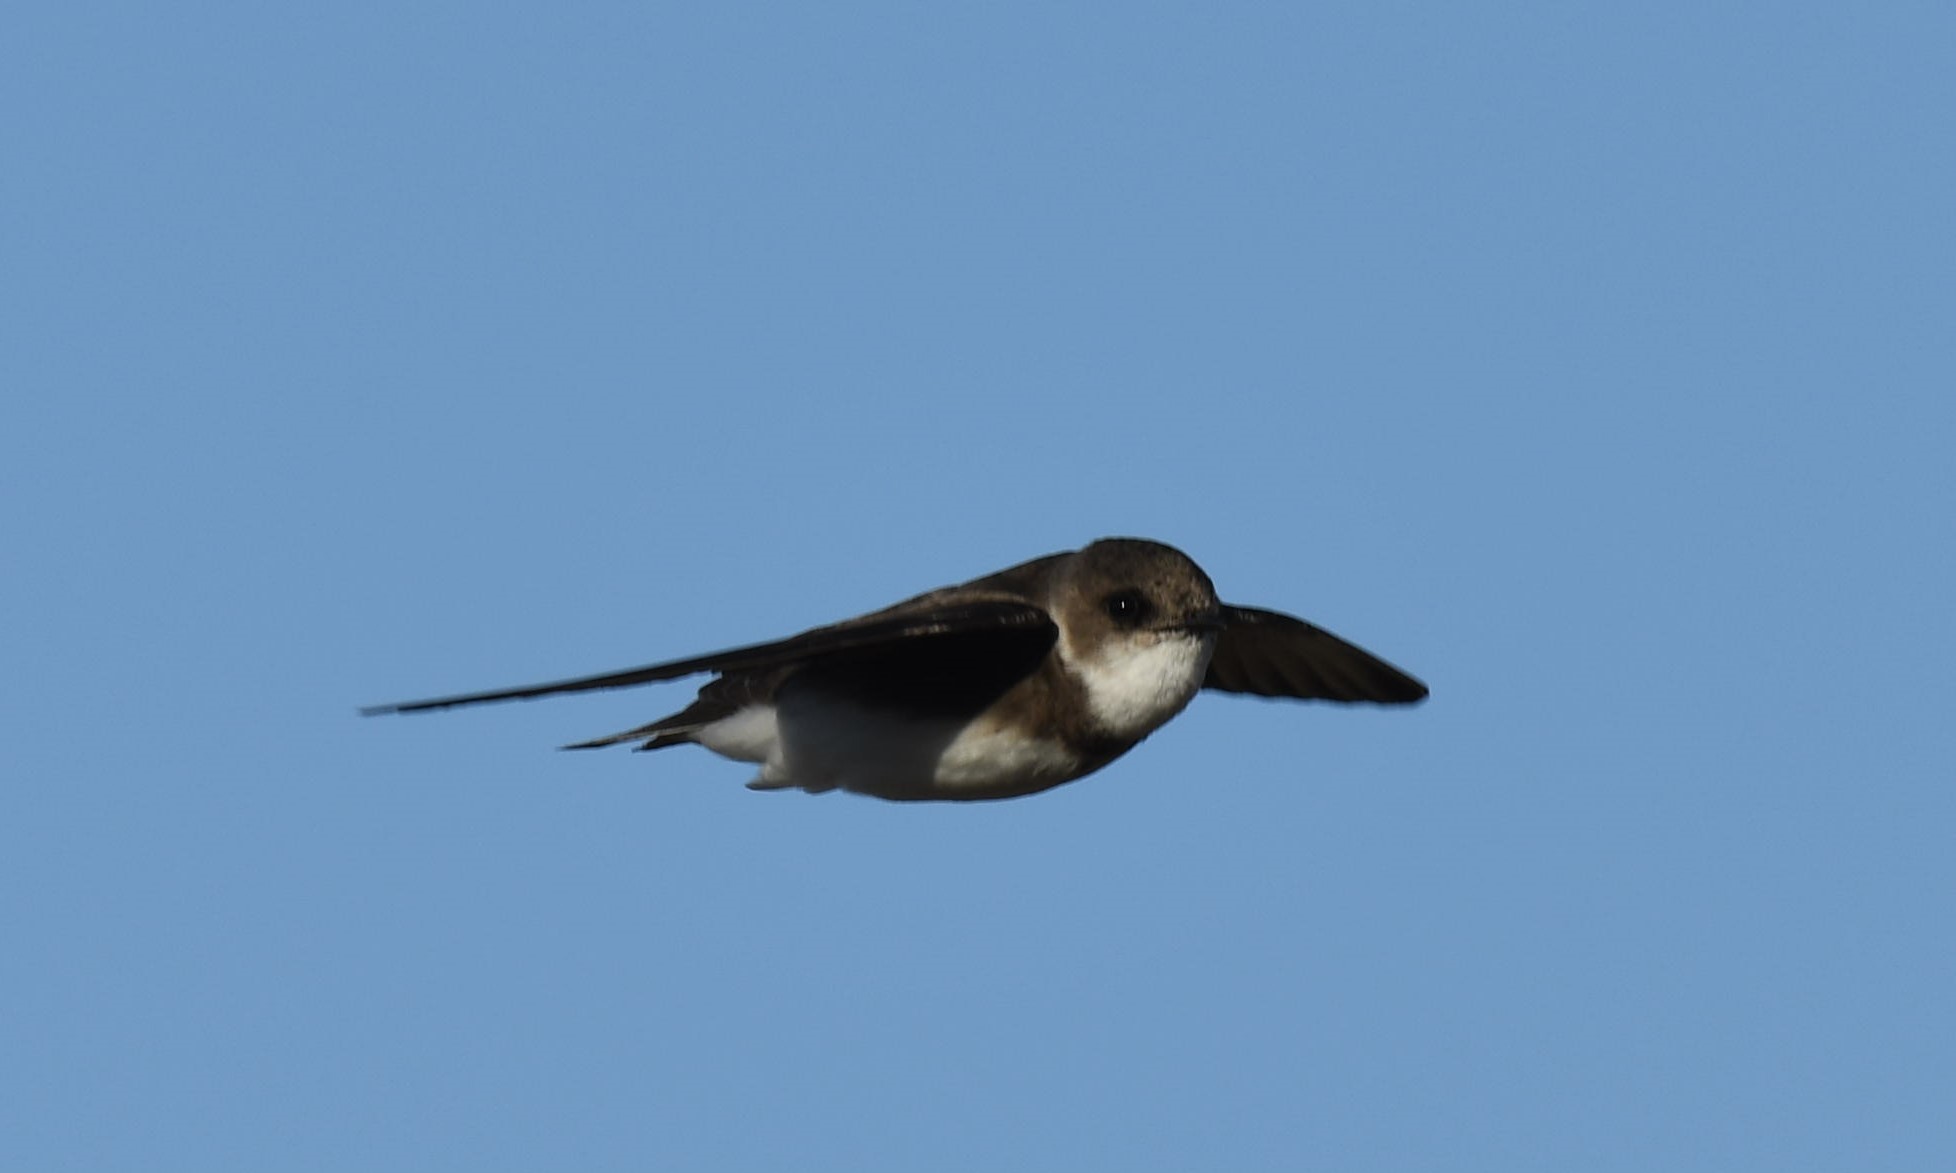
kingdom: Animalia
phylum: Chordata
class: Aves
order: Passeriformes
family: Hirundinidae
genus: Riparia
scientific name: Riparia riparia
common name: Sand martin
